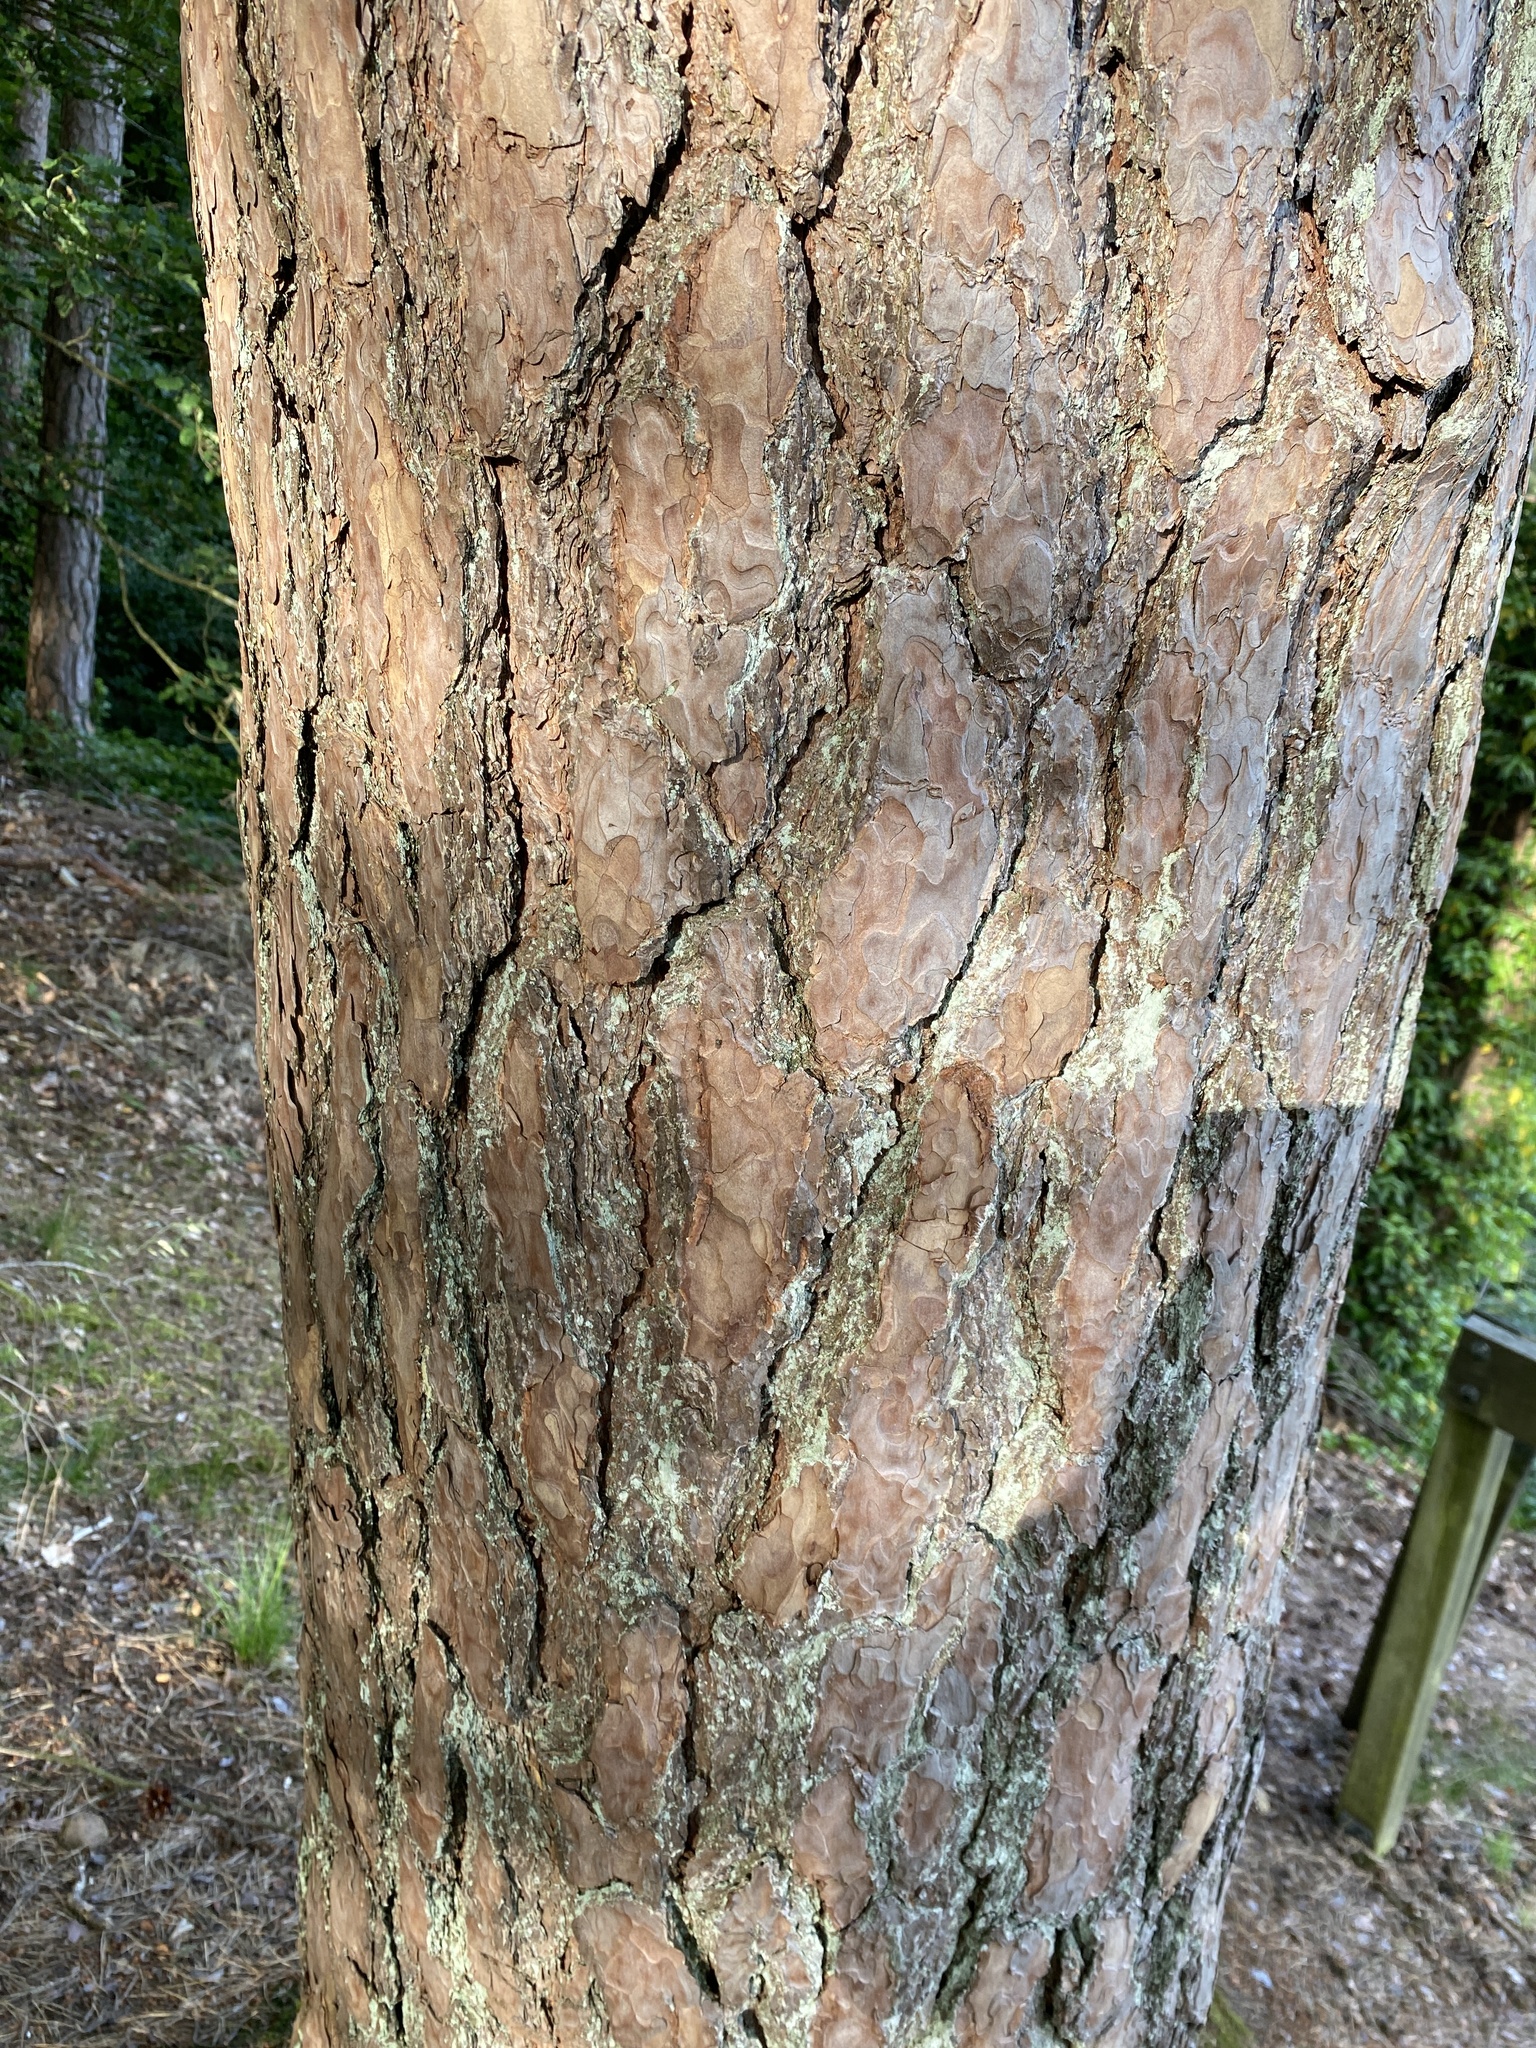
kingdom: Plantae
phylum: Tracheophyta
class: Pinopsida
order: Pinales
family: Pinaceae
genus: Pinus
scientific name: Pinus sylvestris
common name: Scots pine
